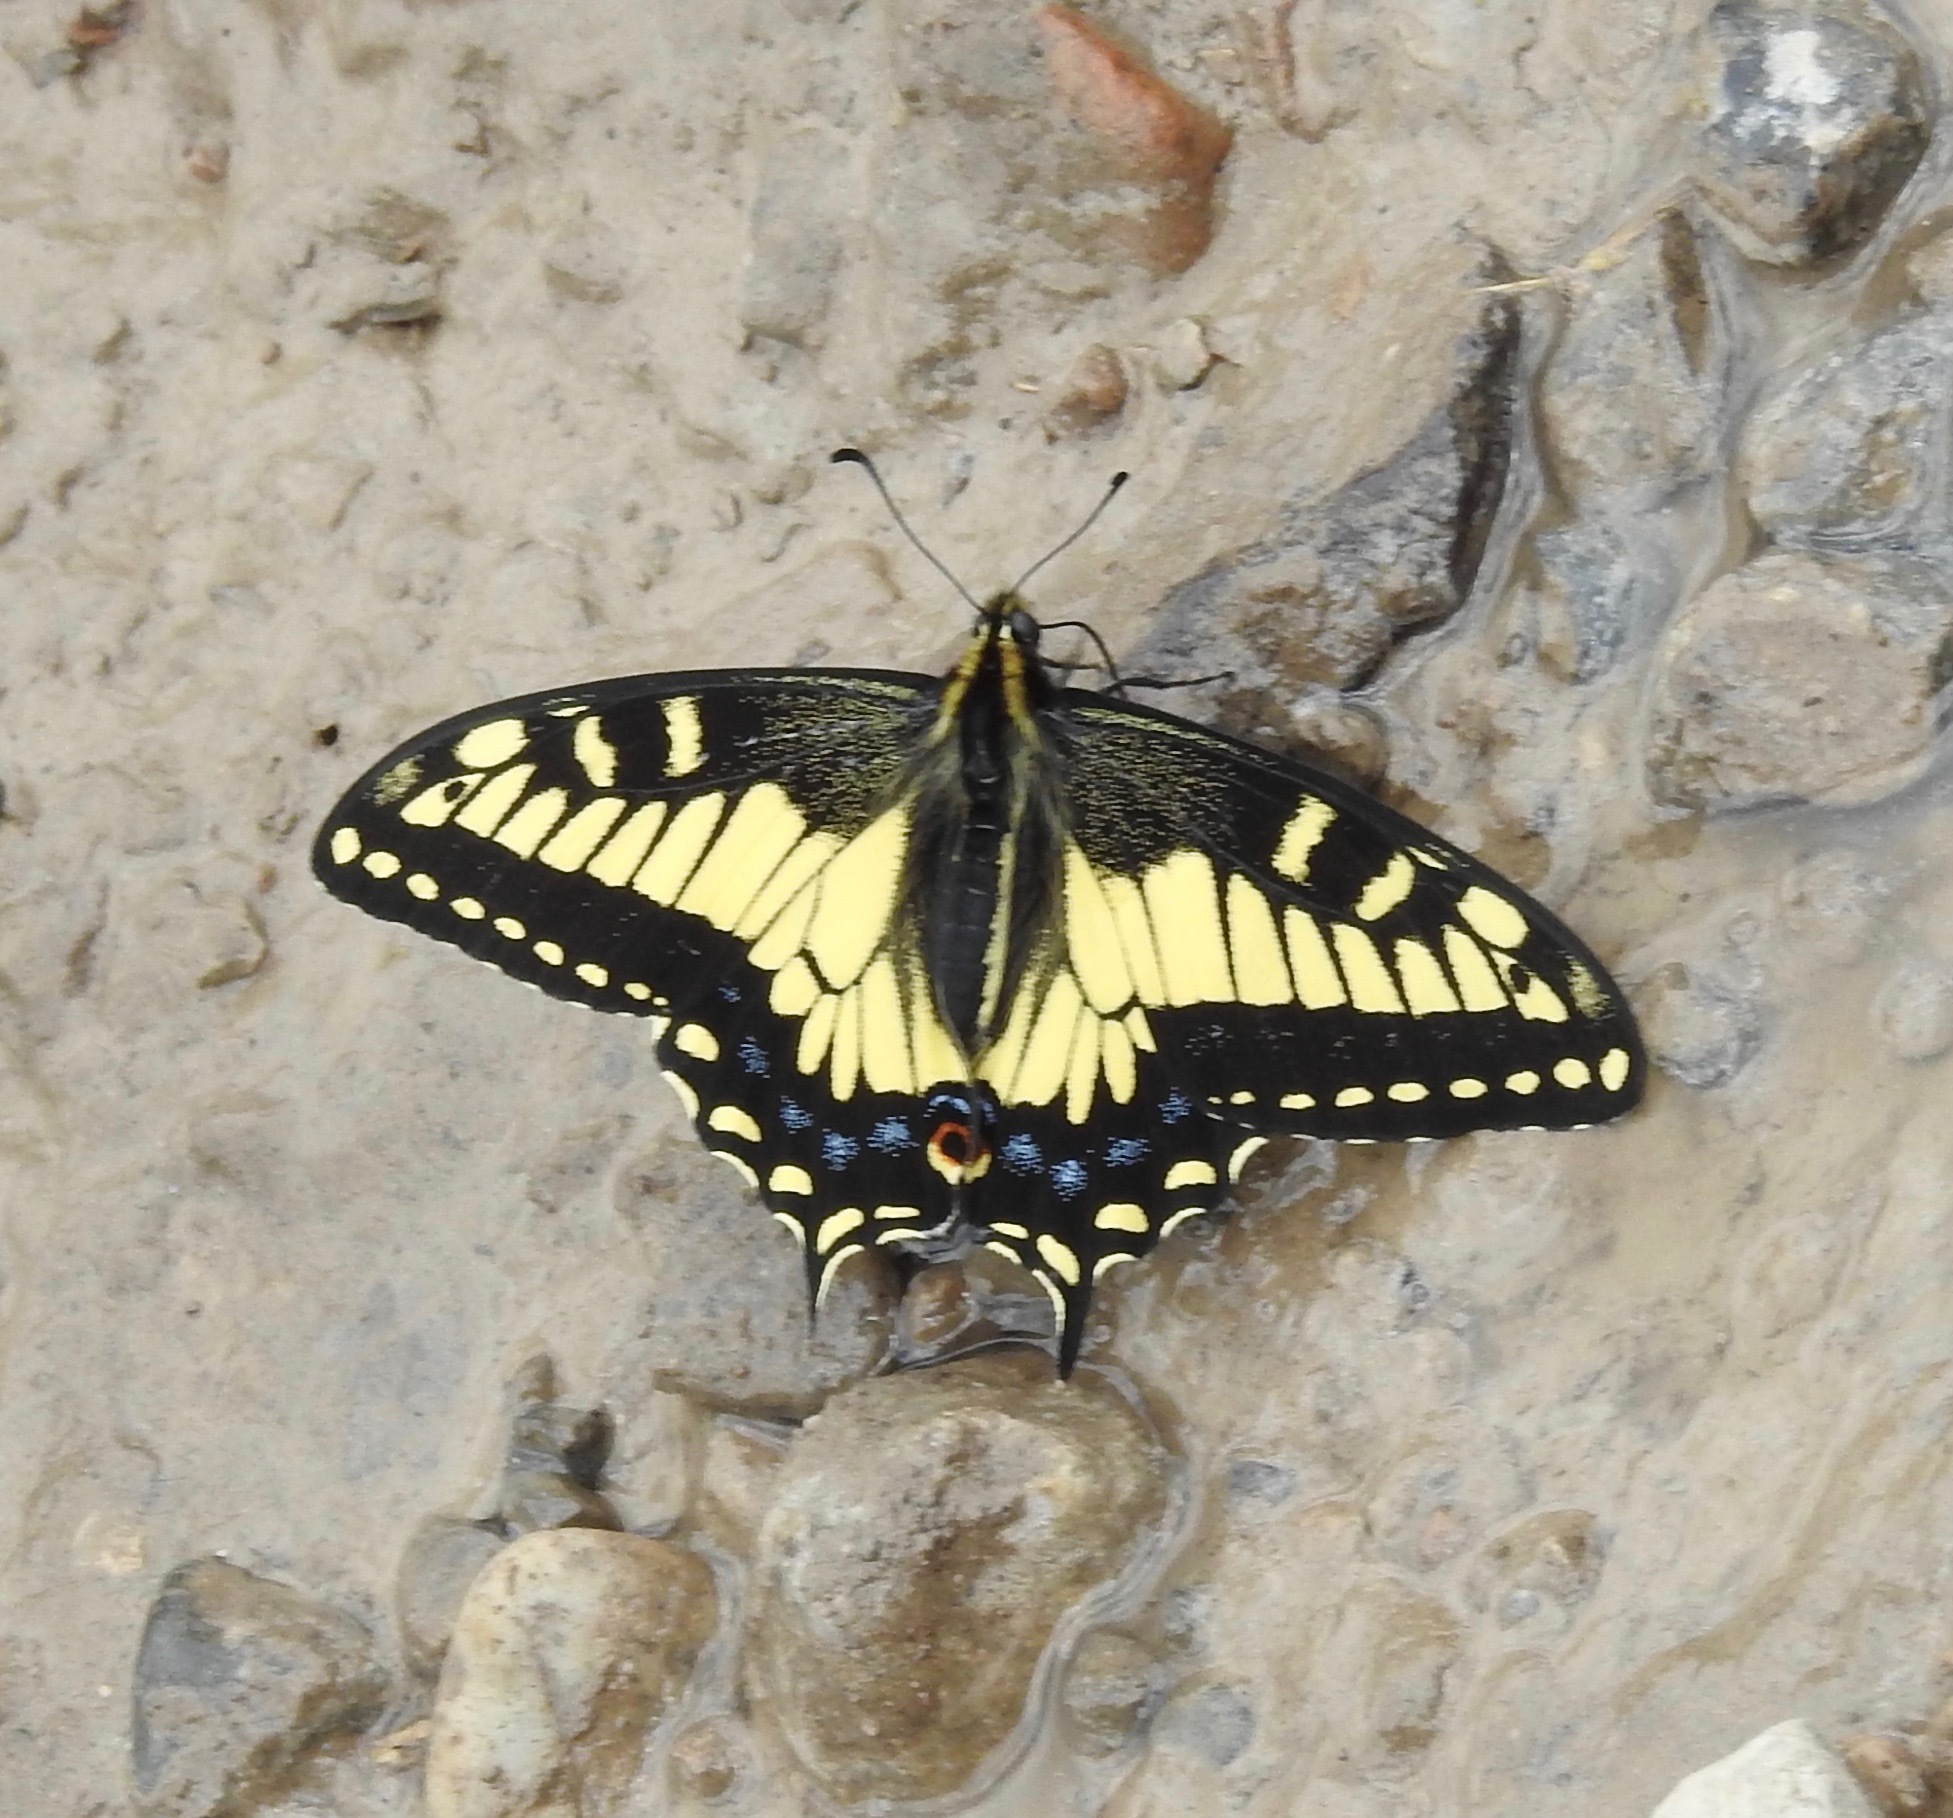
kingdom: Animalia
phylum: Arthropoda
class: Insecta
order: Lepidoptera
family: Papilionidae
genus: Papilio
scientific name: Papilio zelicaon
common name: Anise swallowtail
